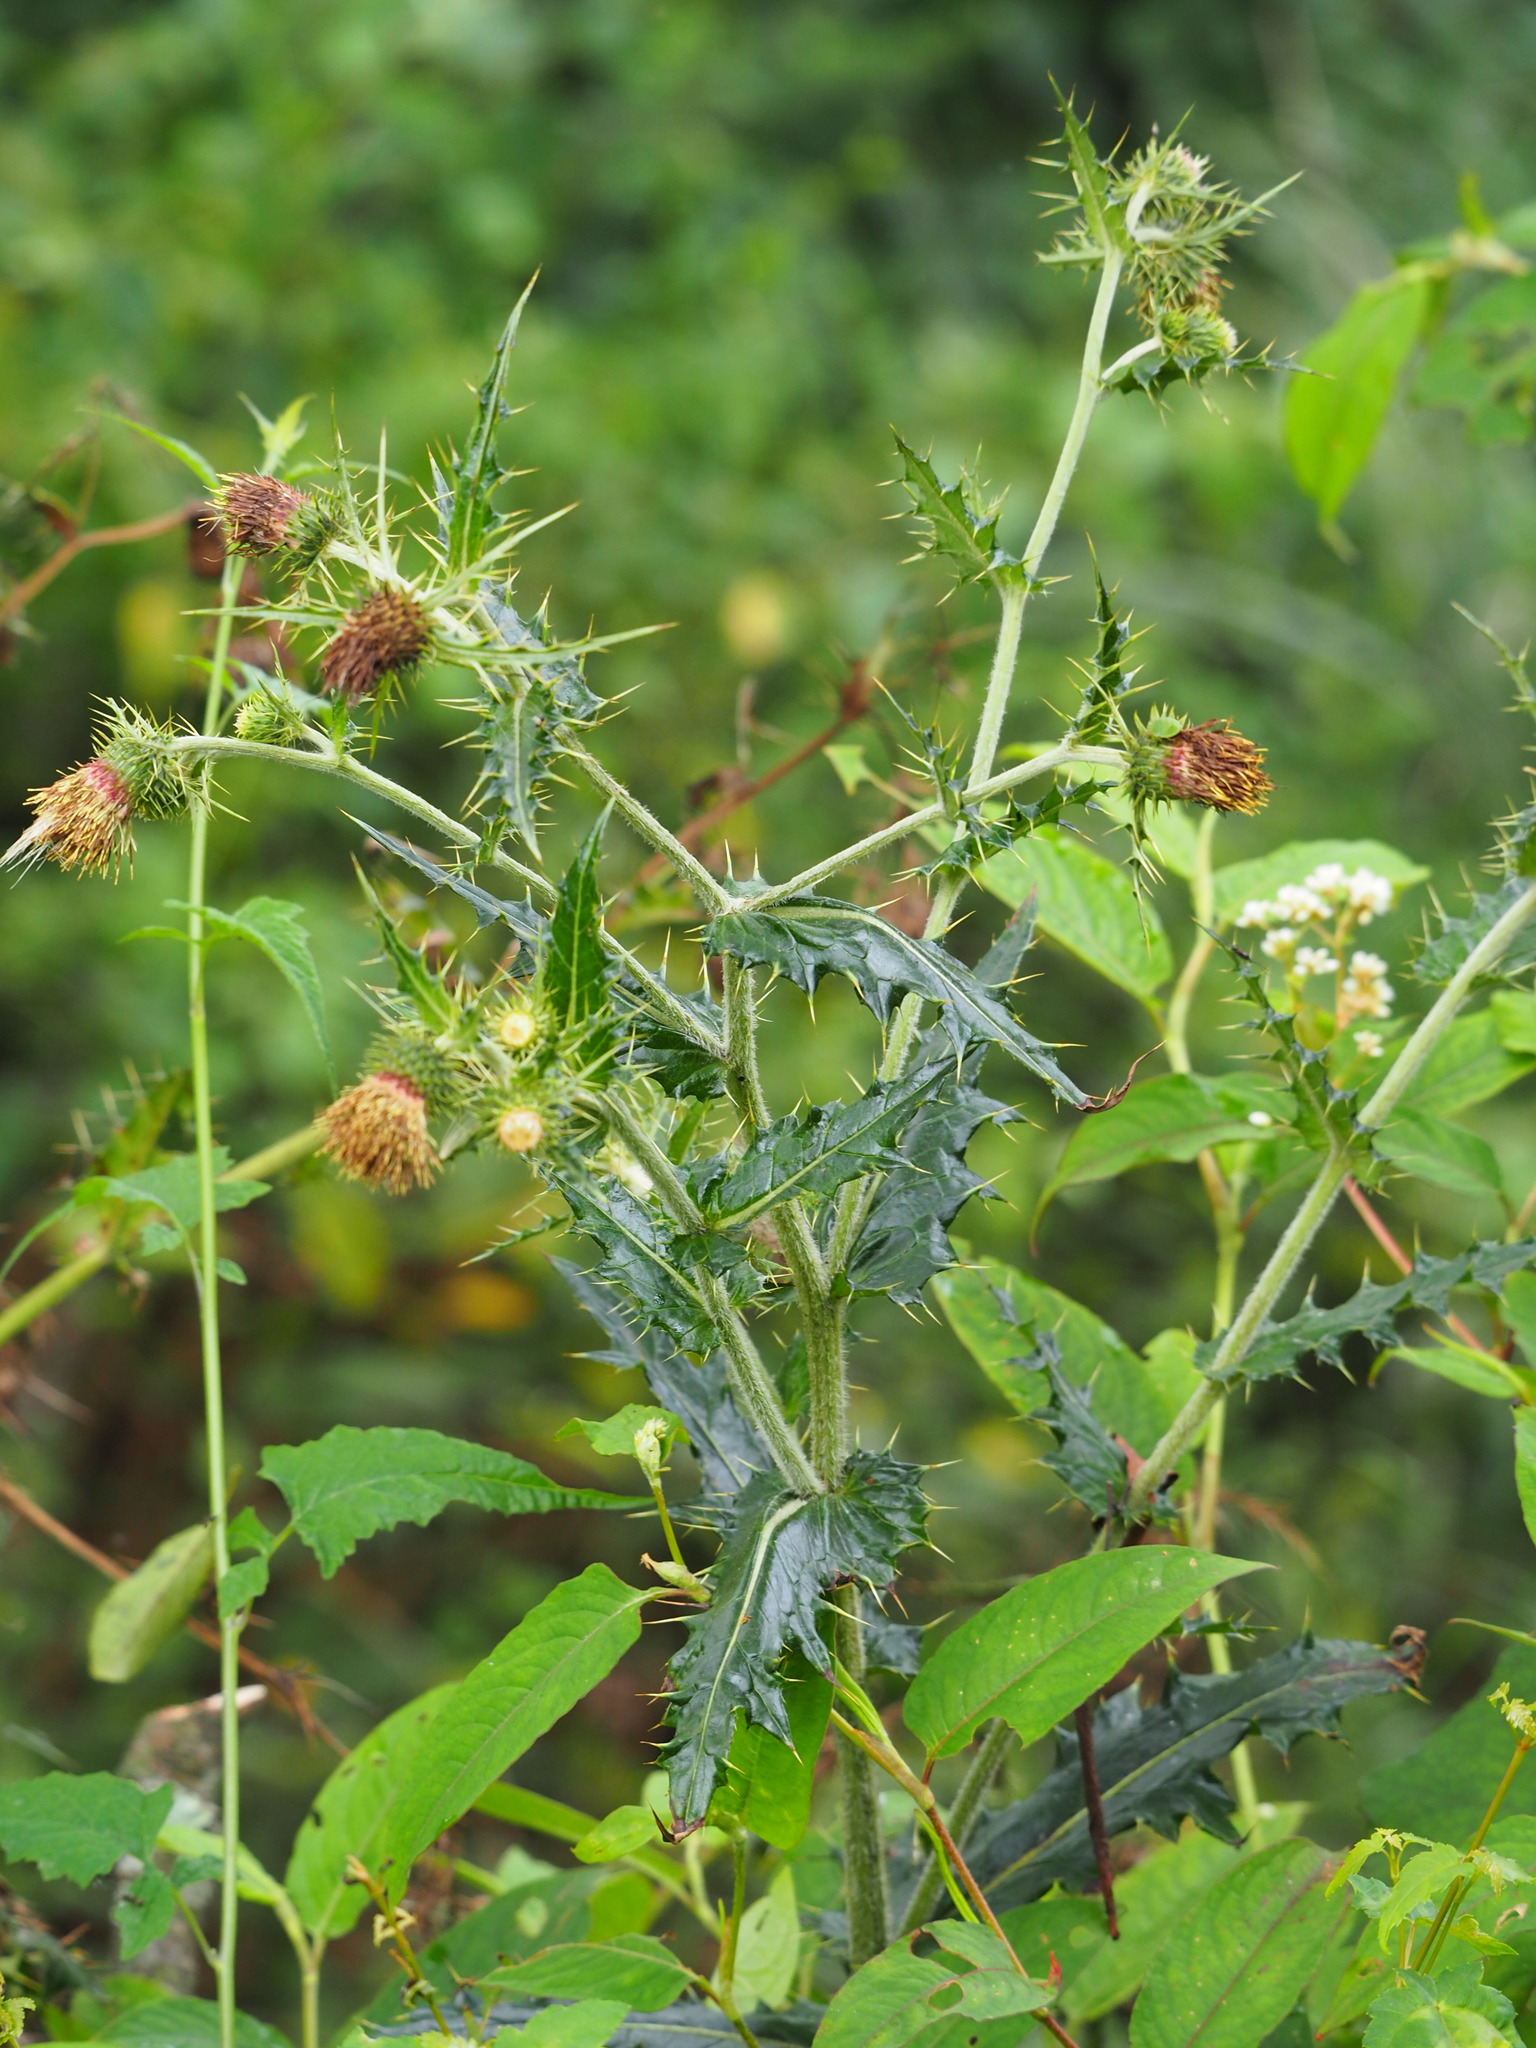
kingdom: Plantae
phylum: Tracheophyta
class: Magnoliopsida
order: Asterales
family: Asteraceae
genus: Cirsium
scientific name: Cirsium arisanense
